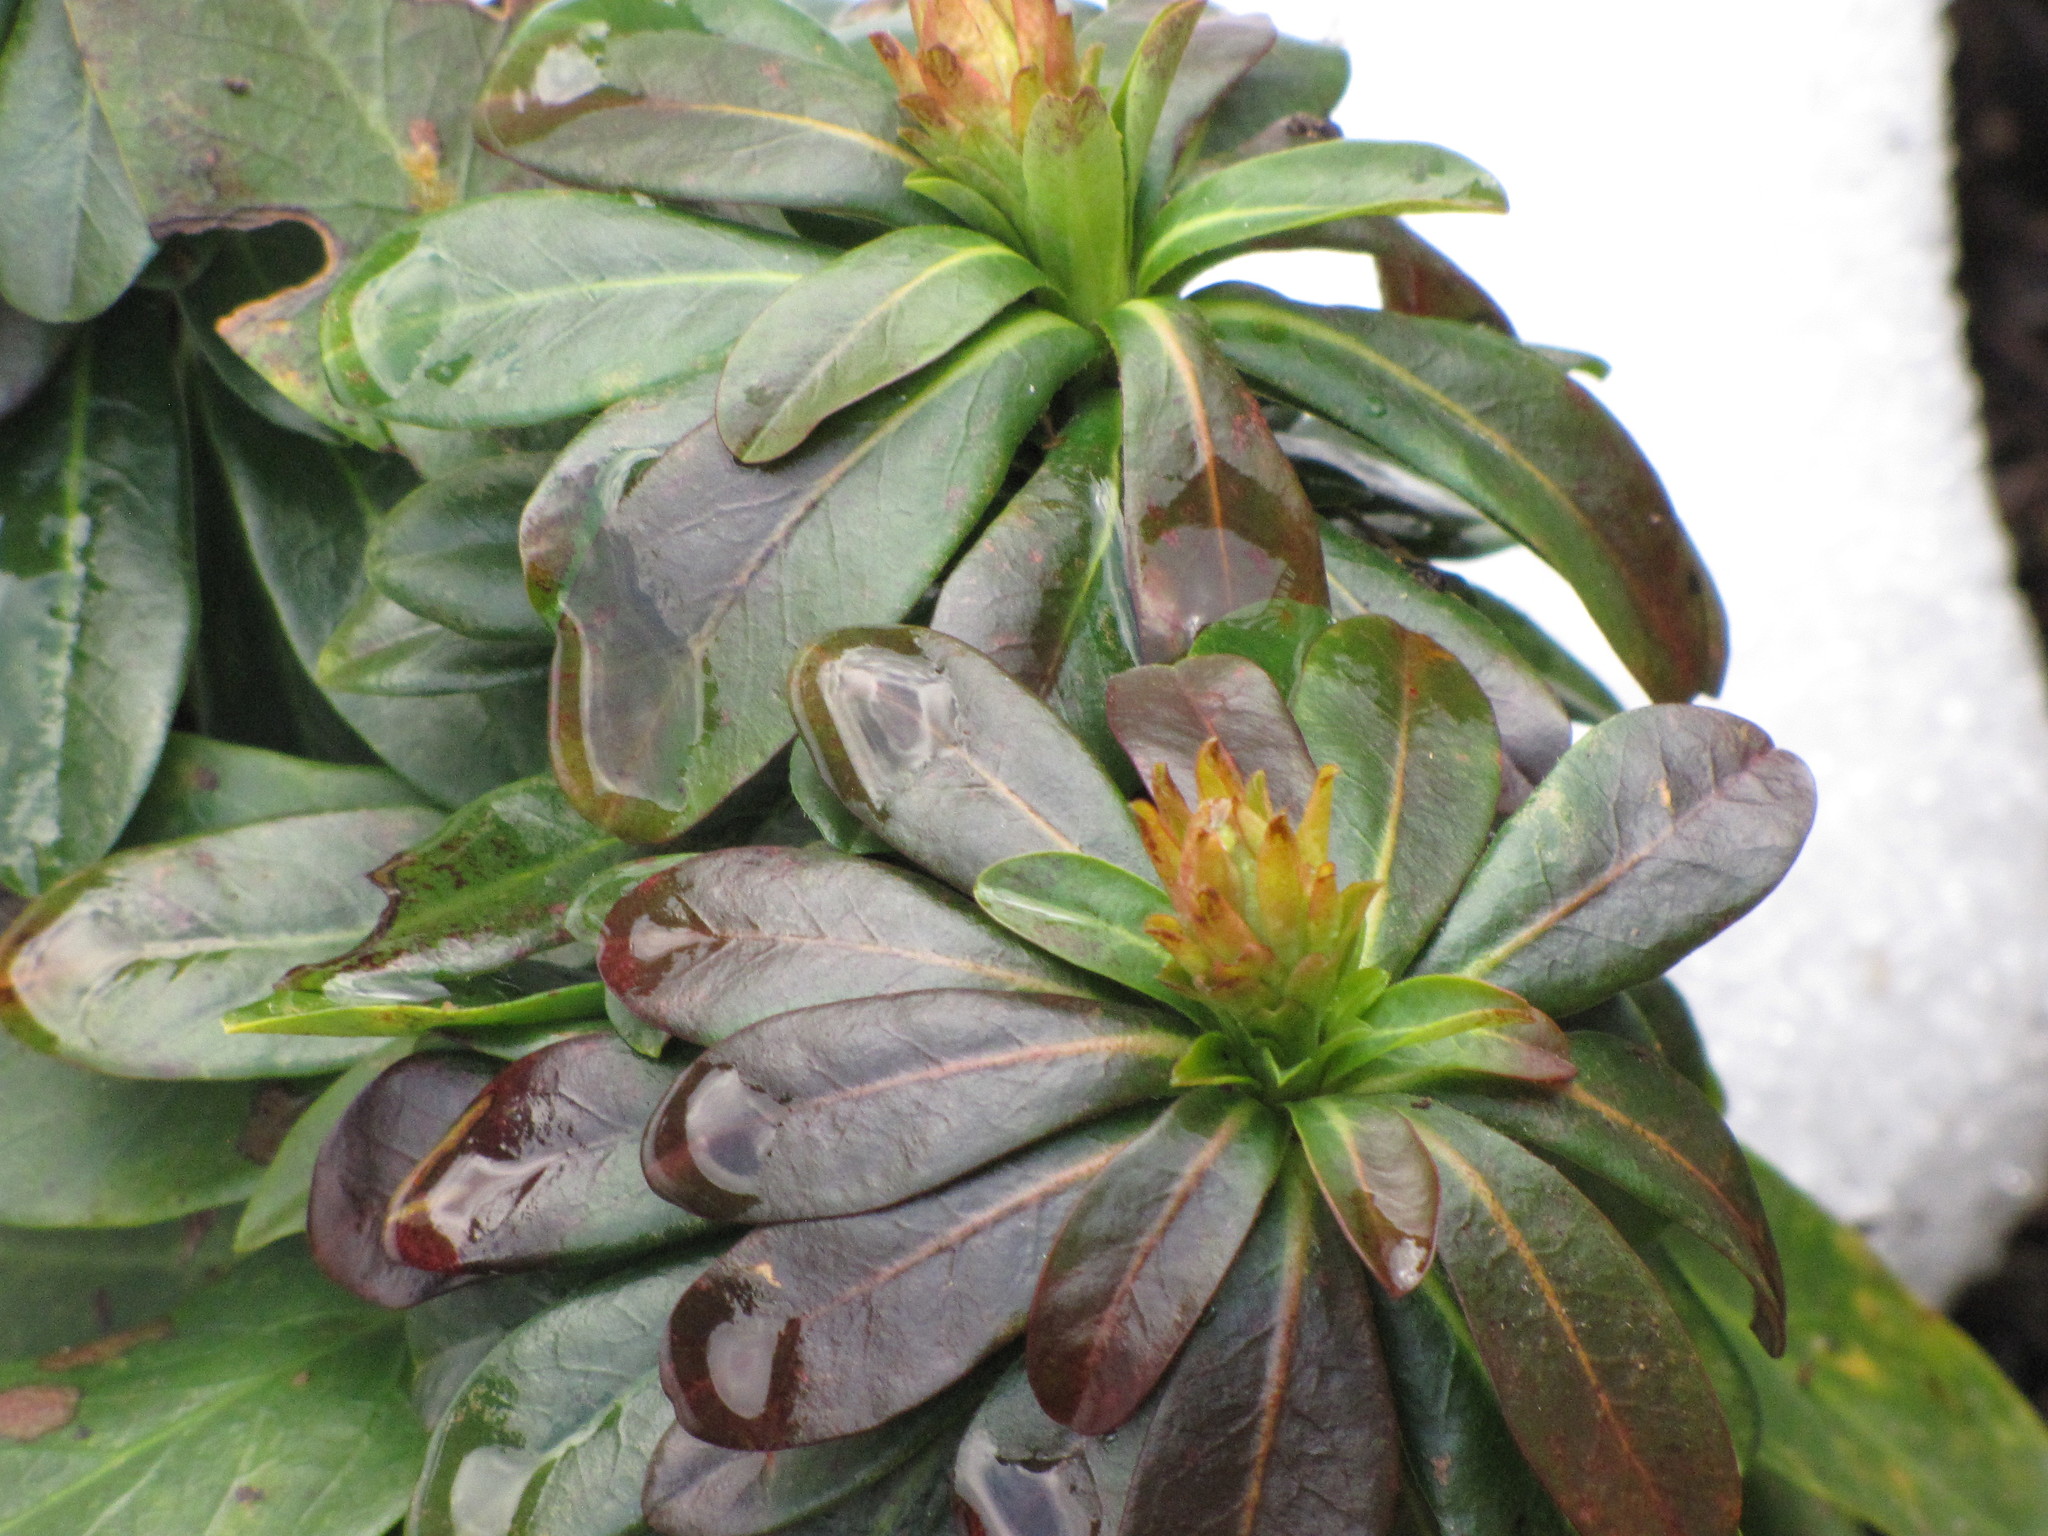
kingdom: Plantae
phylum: Tracheophyta
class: Magnoliopsida
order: Malvales
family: Thymelaeaceae
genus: Daphne
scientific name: Daphne laureola
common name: Spurge-laurel
